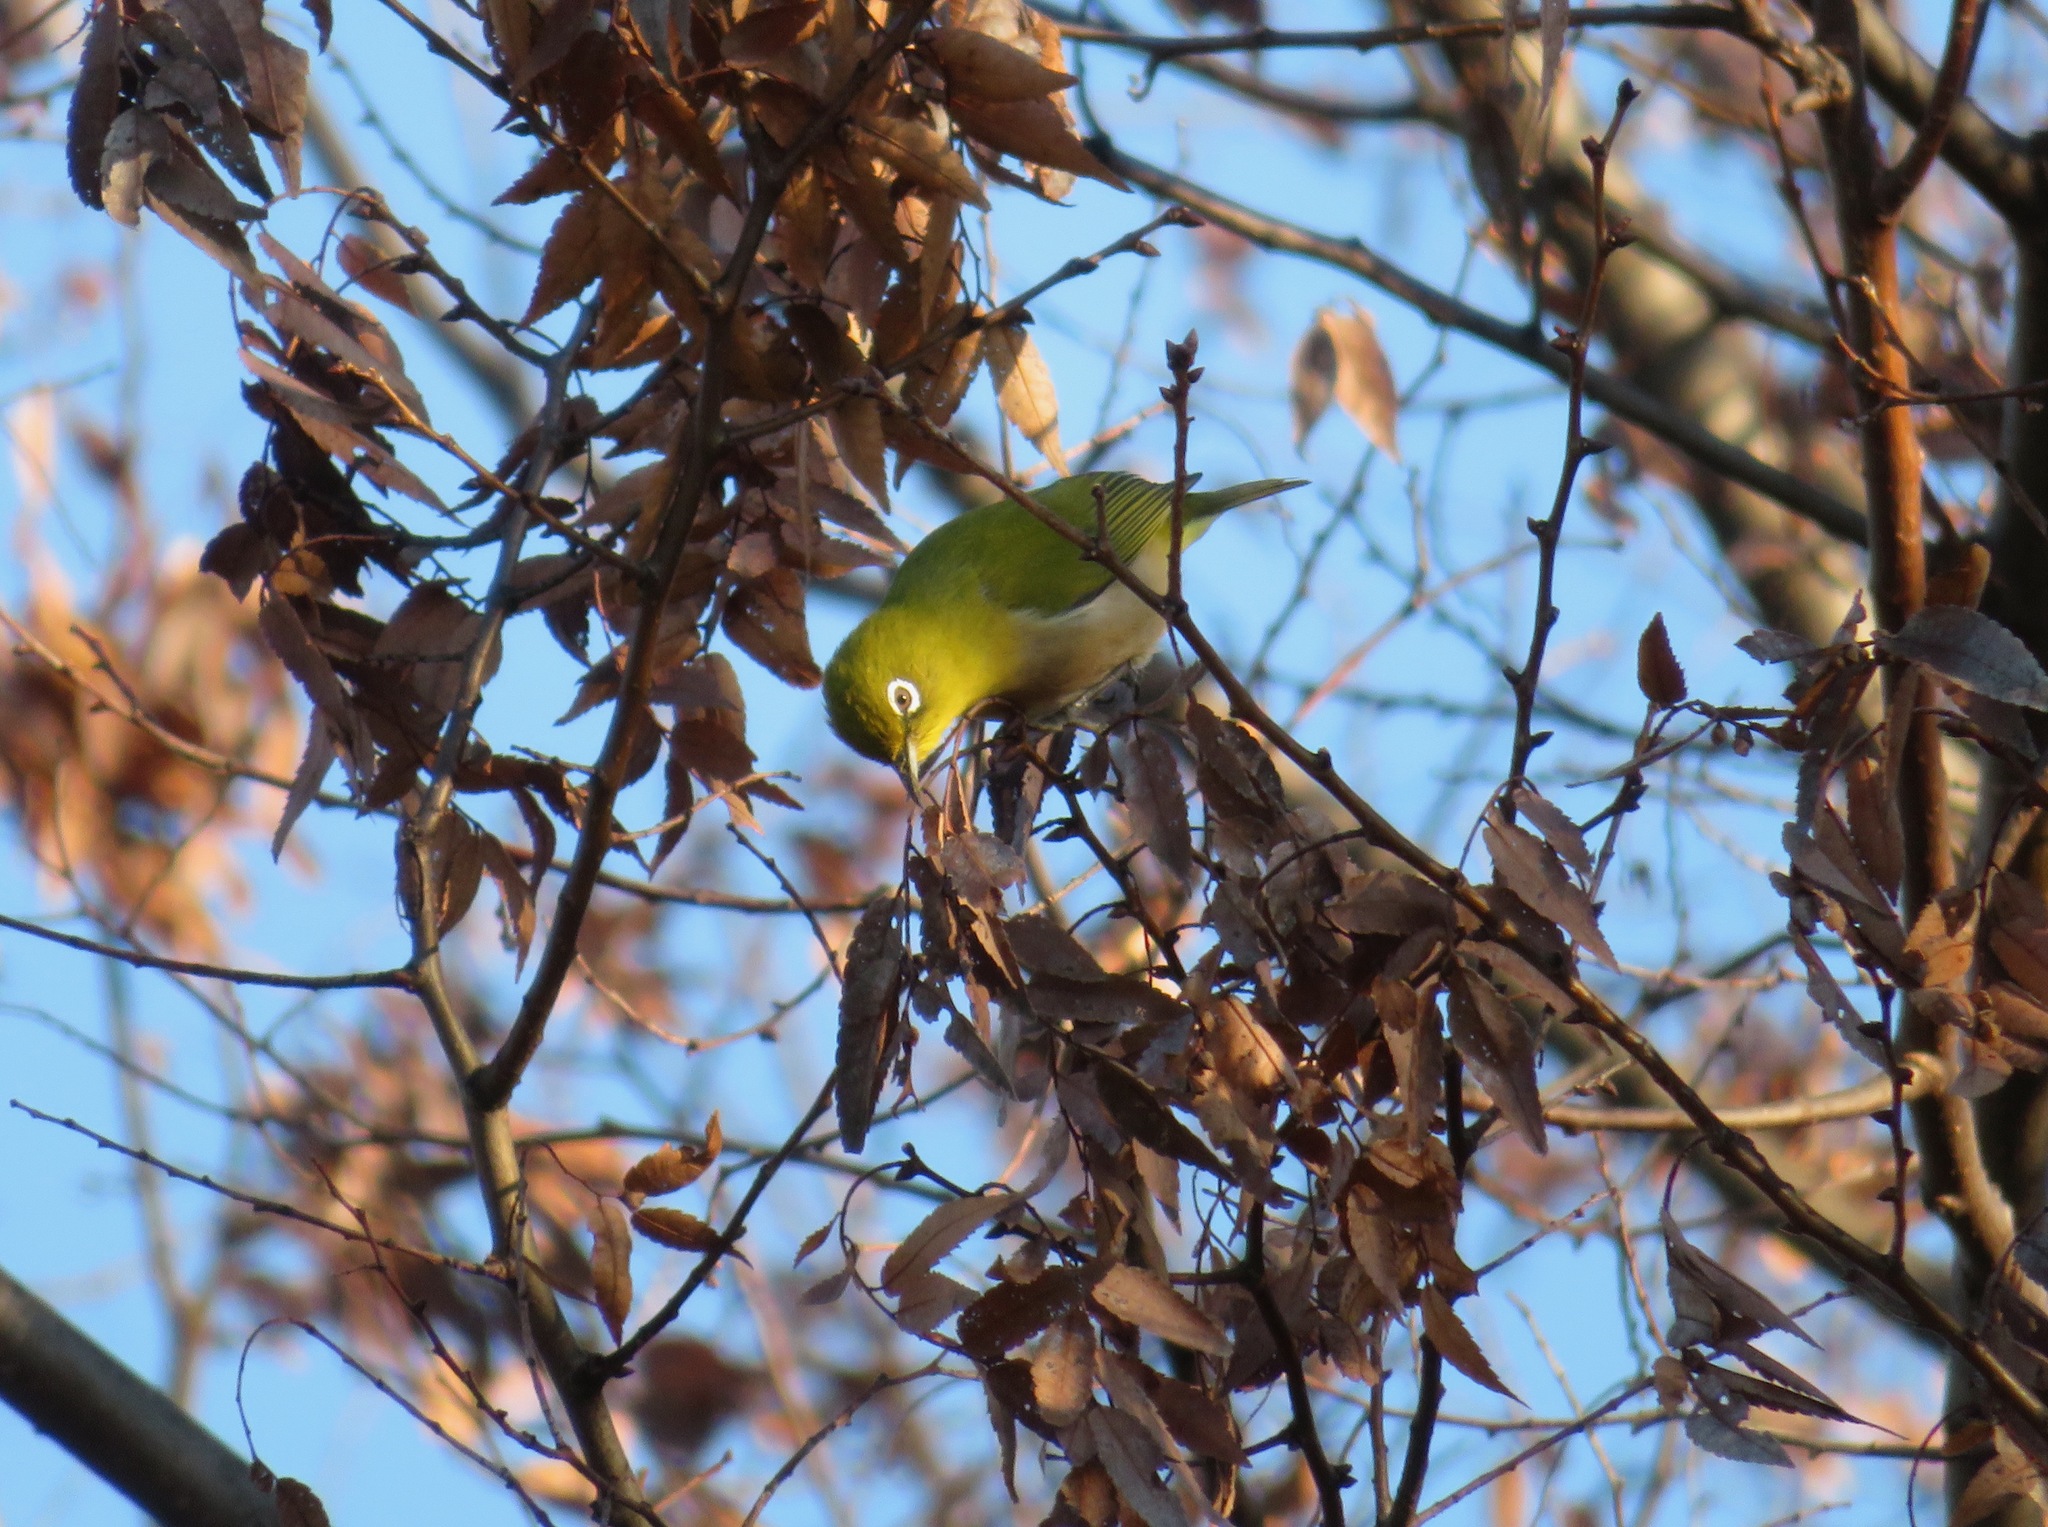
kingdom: Animalia
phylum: Chordata
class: Aves
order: Passeriformes
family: Zosteropidae
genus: Zosterops
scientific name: Zosterops japonicus
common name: Japanese white-eye
